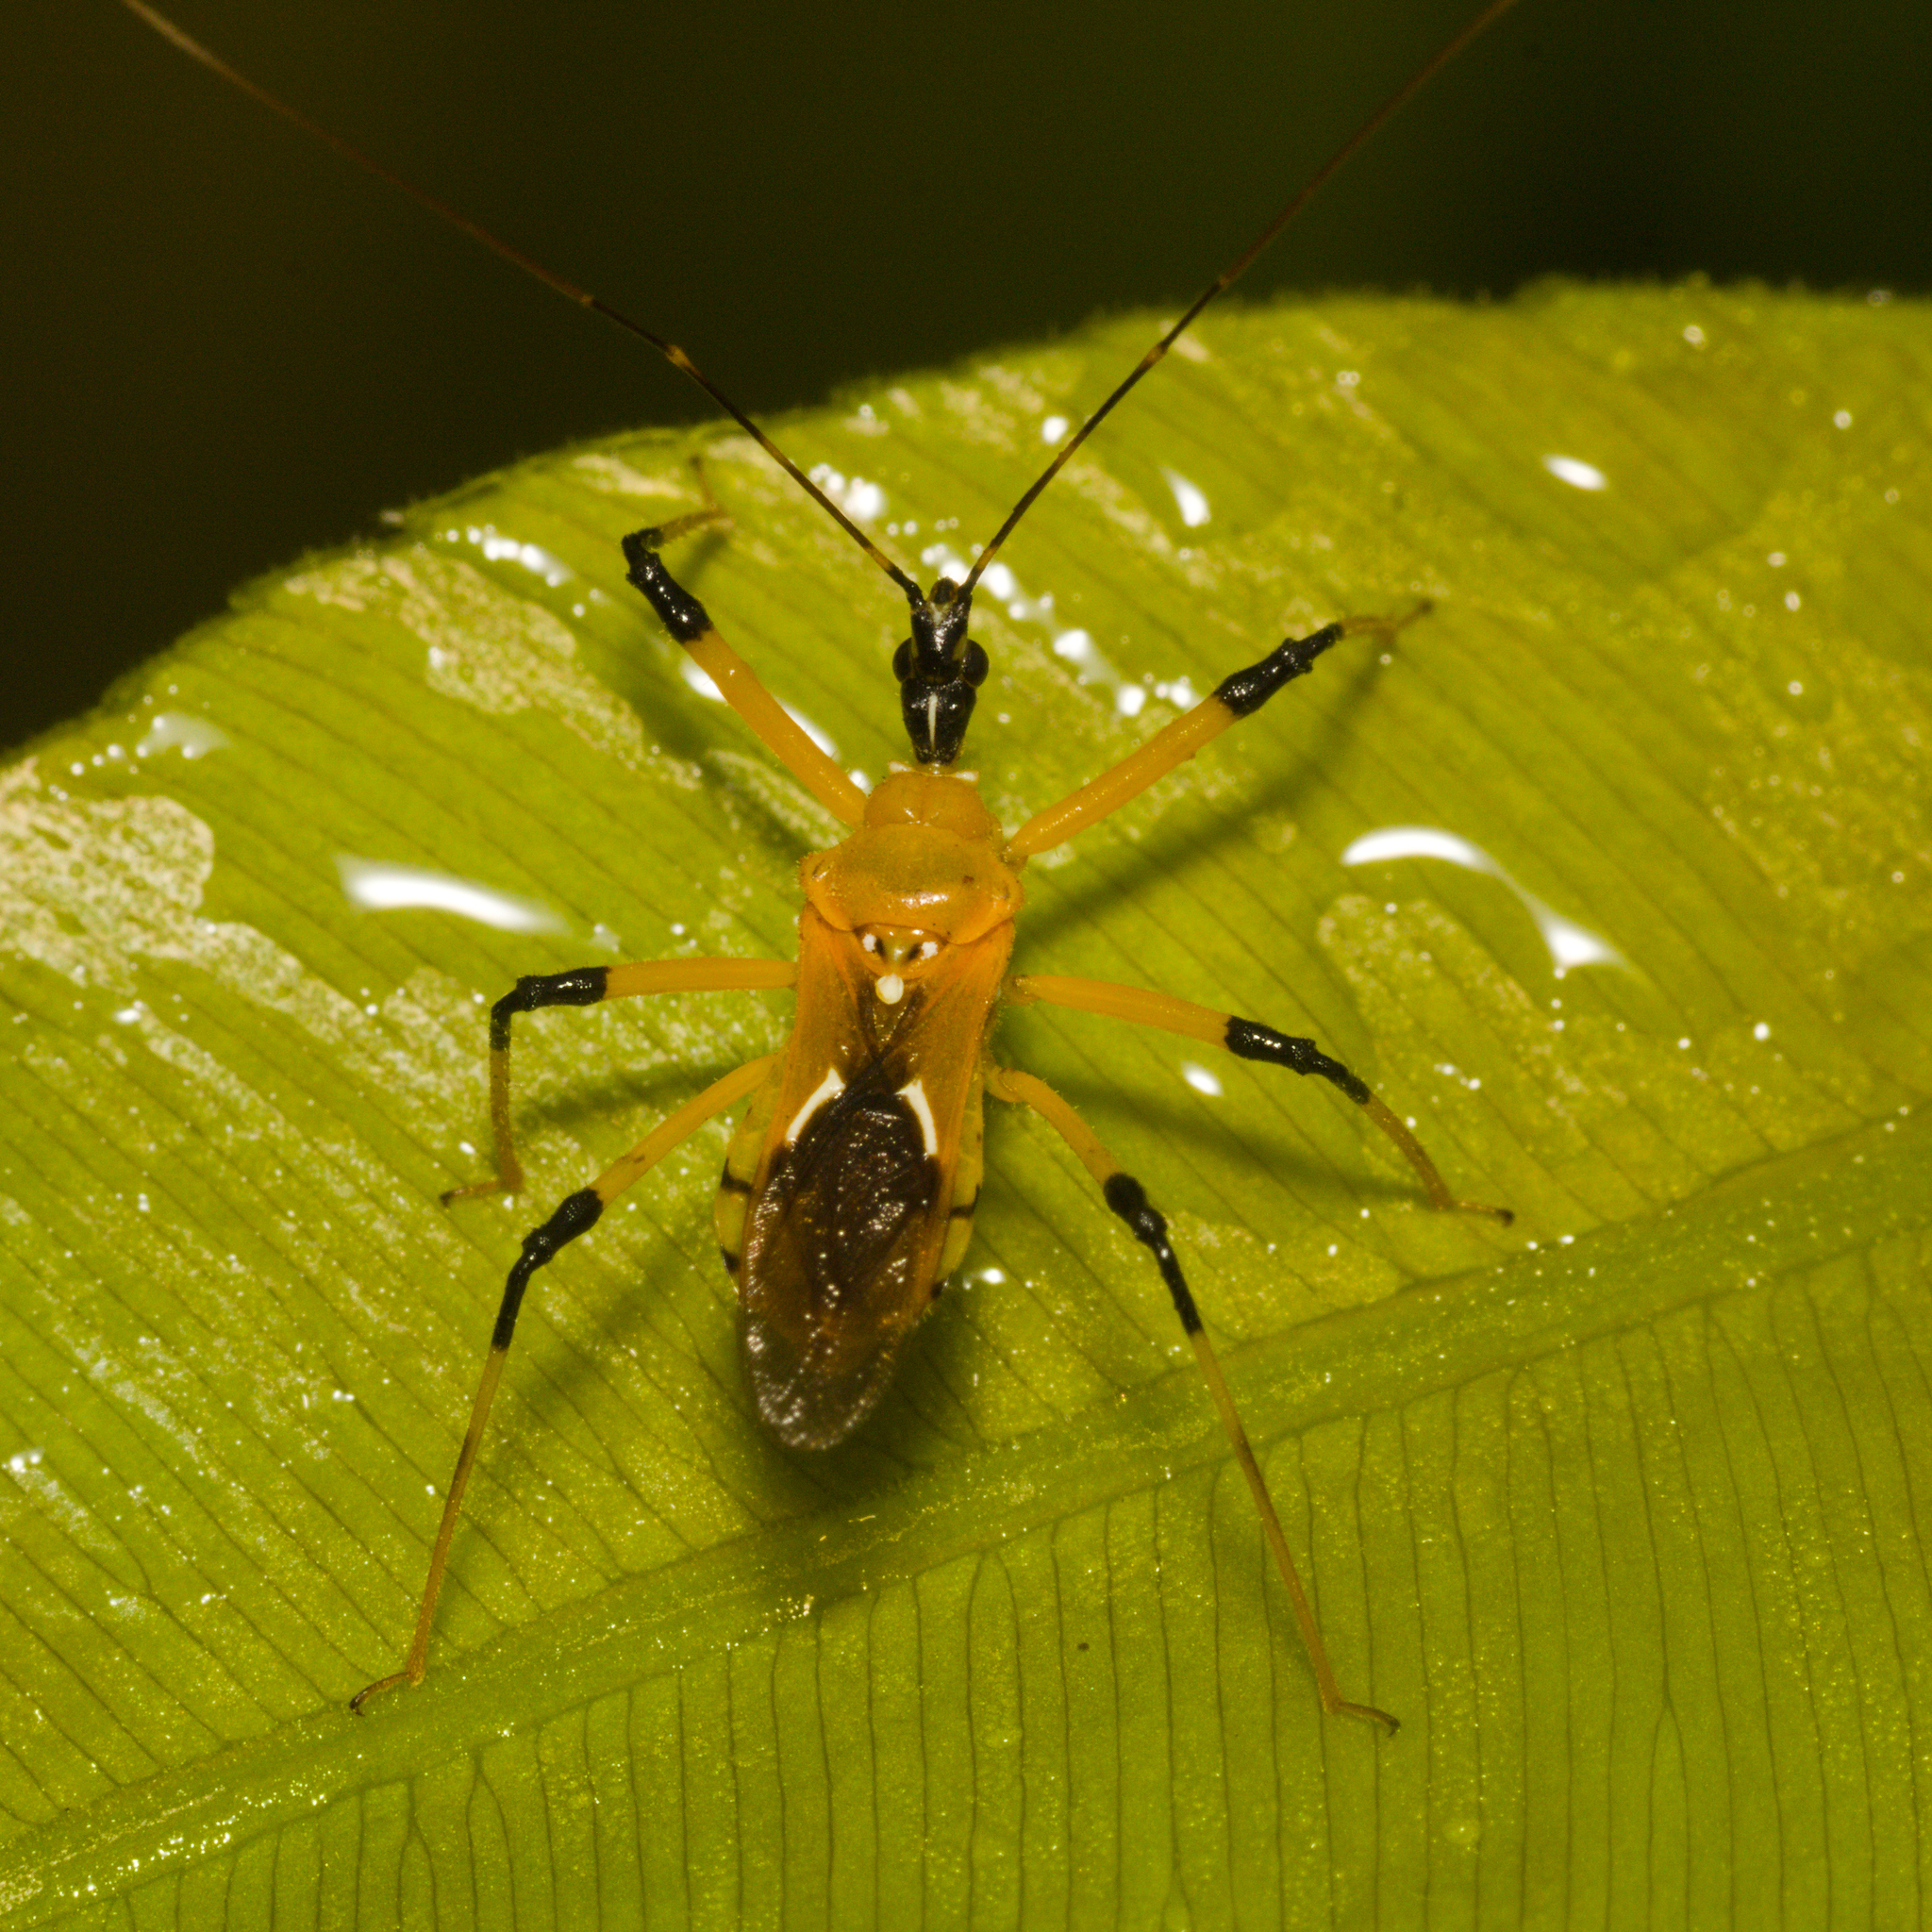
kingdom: Animalia
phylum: Arthropoda
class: Insecta
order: Hemiptera
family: Reduviidae
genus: Cosmolestes
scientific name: Cosmolestes picticeps
